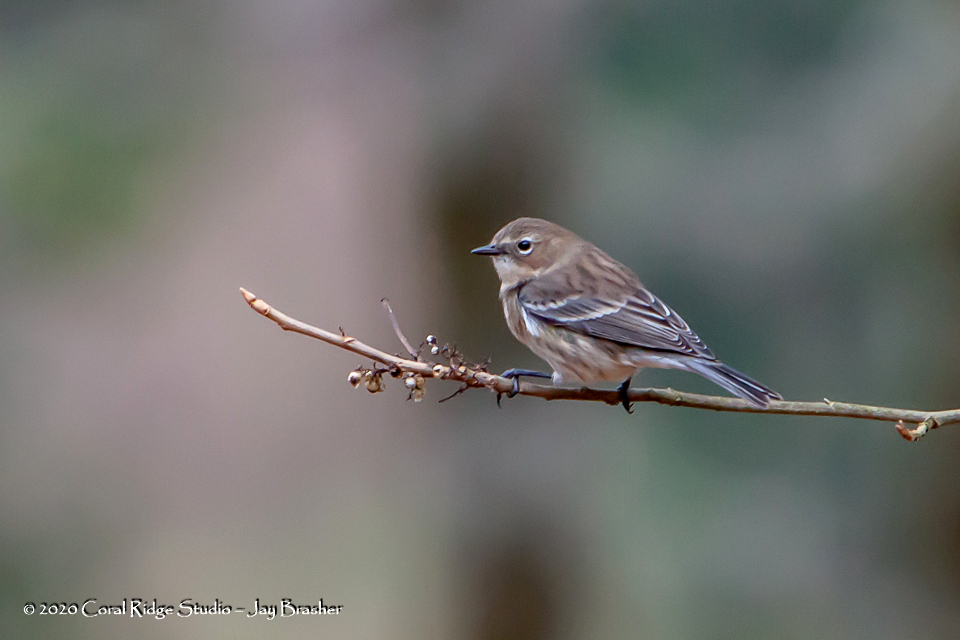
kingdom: Animalia
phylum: Chordata
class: Aves
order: Passeriformes
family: Parulidae
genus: Setophaga
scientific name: Setophaga coronata
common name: Myrtle warbler
